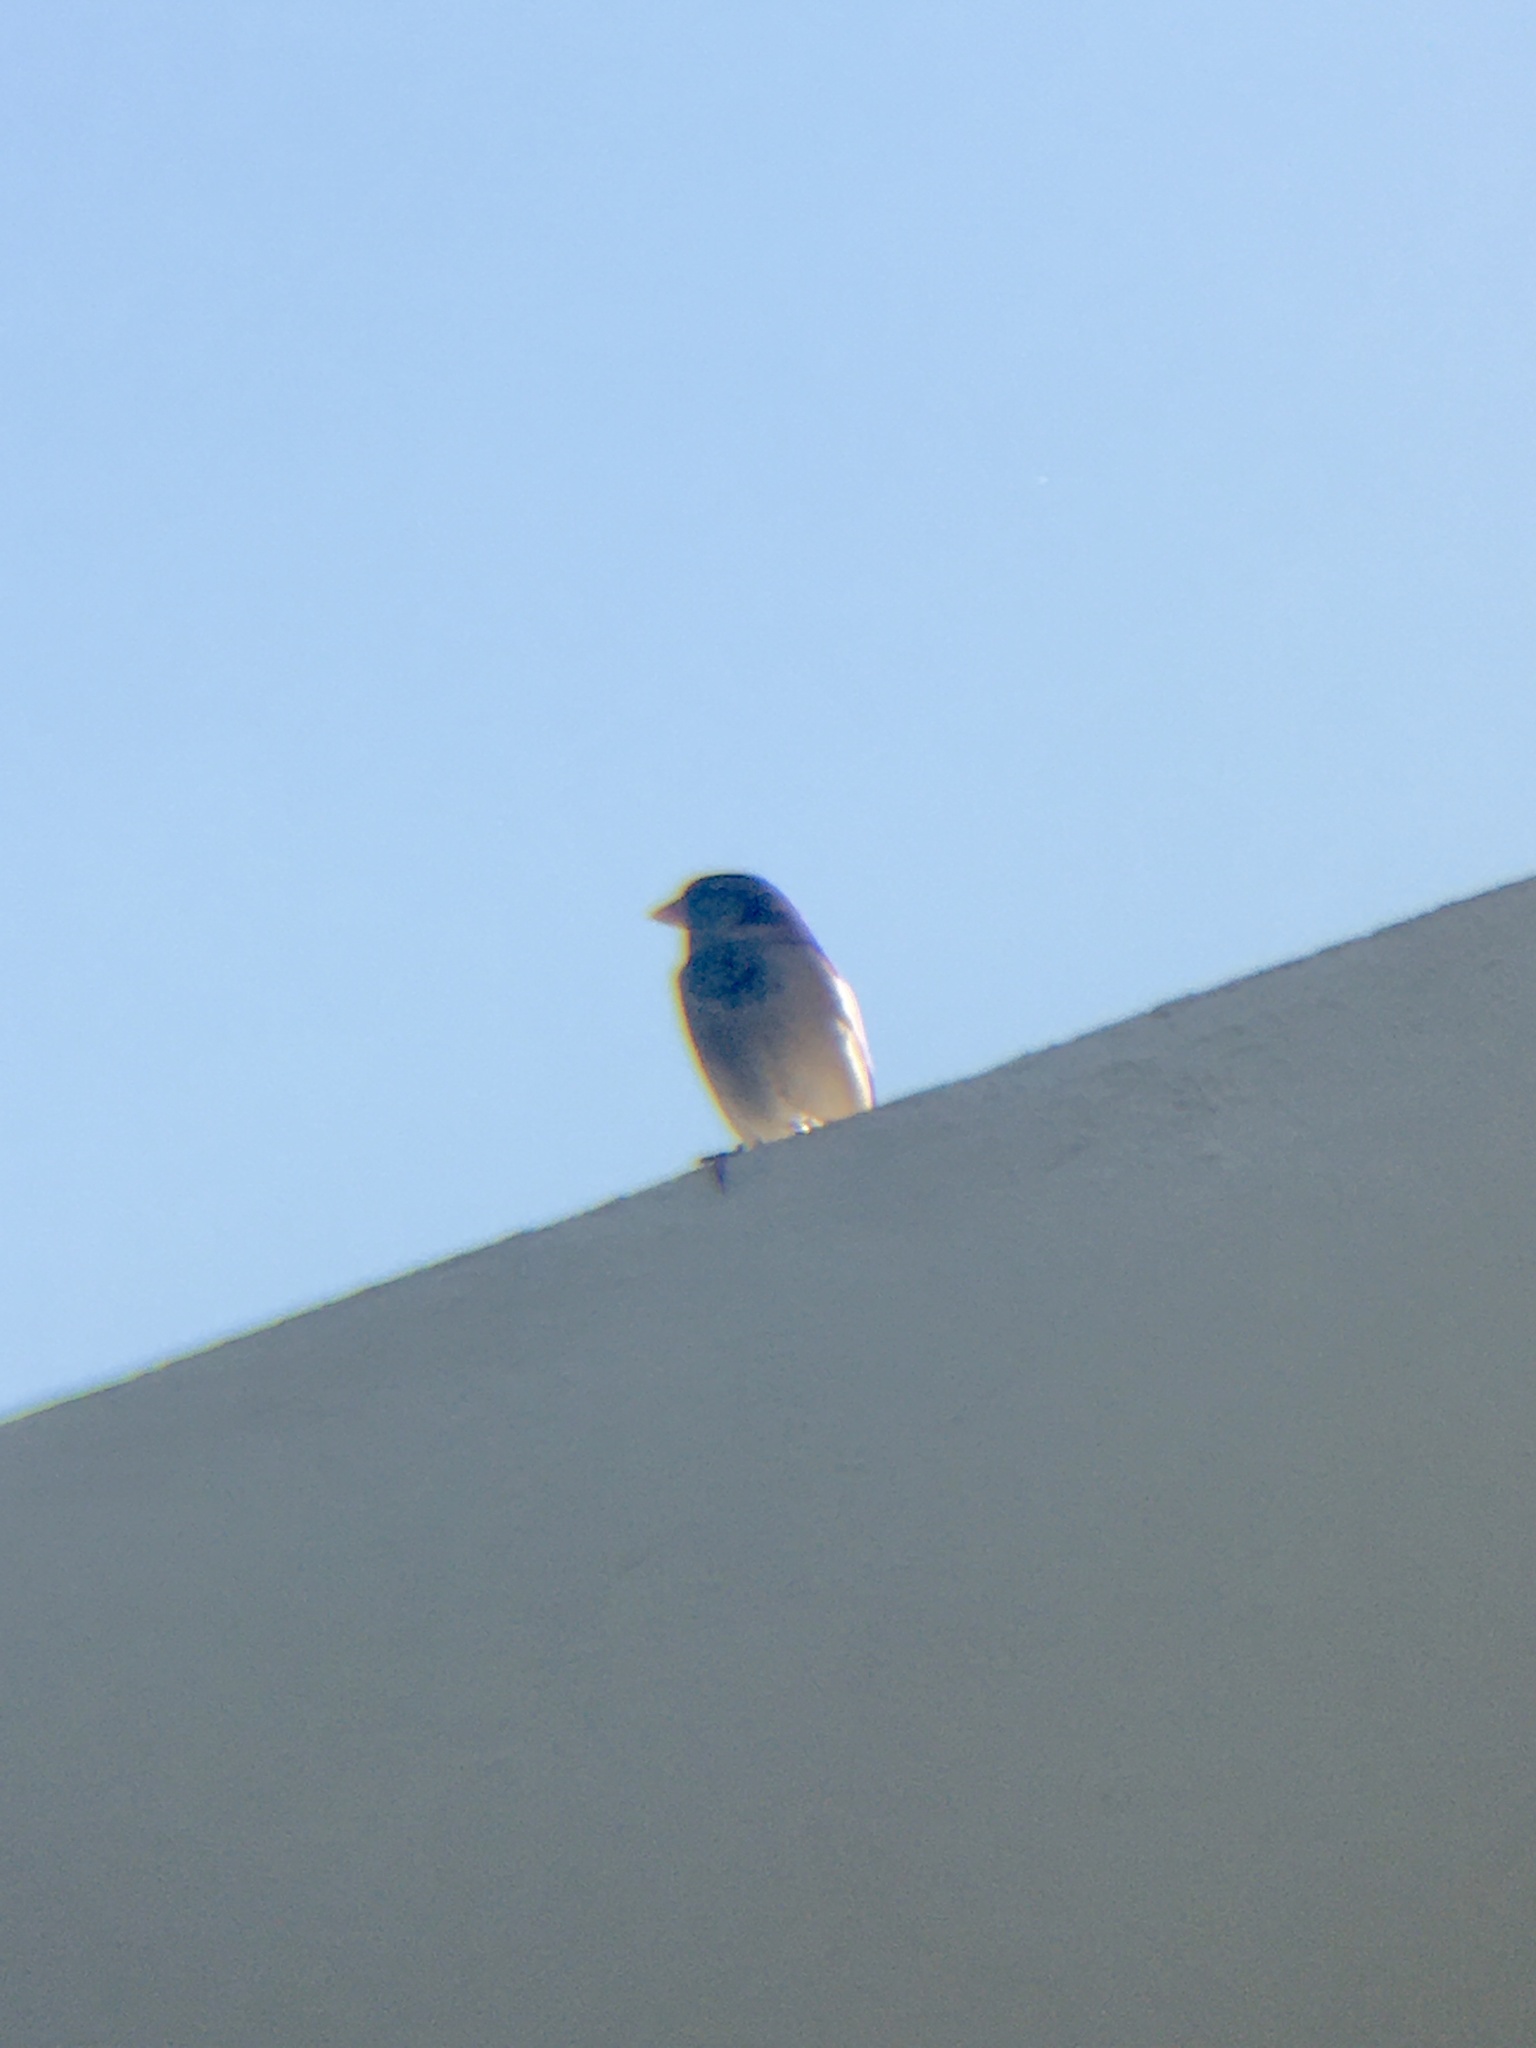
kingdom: Animalia
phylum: Chordata
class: Aves
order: Passeriformes
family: Passeridae
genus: Passer
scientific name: Passer domesticus
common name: House sparrow
